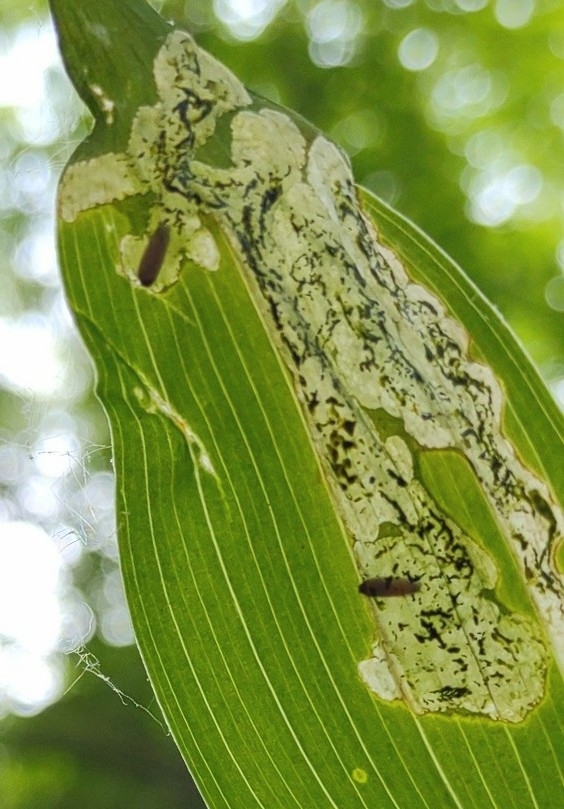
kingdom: Animalia
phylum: Arthropoda
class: Insecta
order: Diptera
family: Scathophagidae
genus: Leptopa
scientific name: Leptopa
